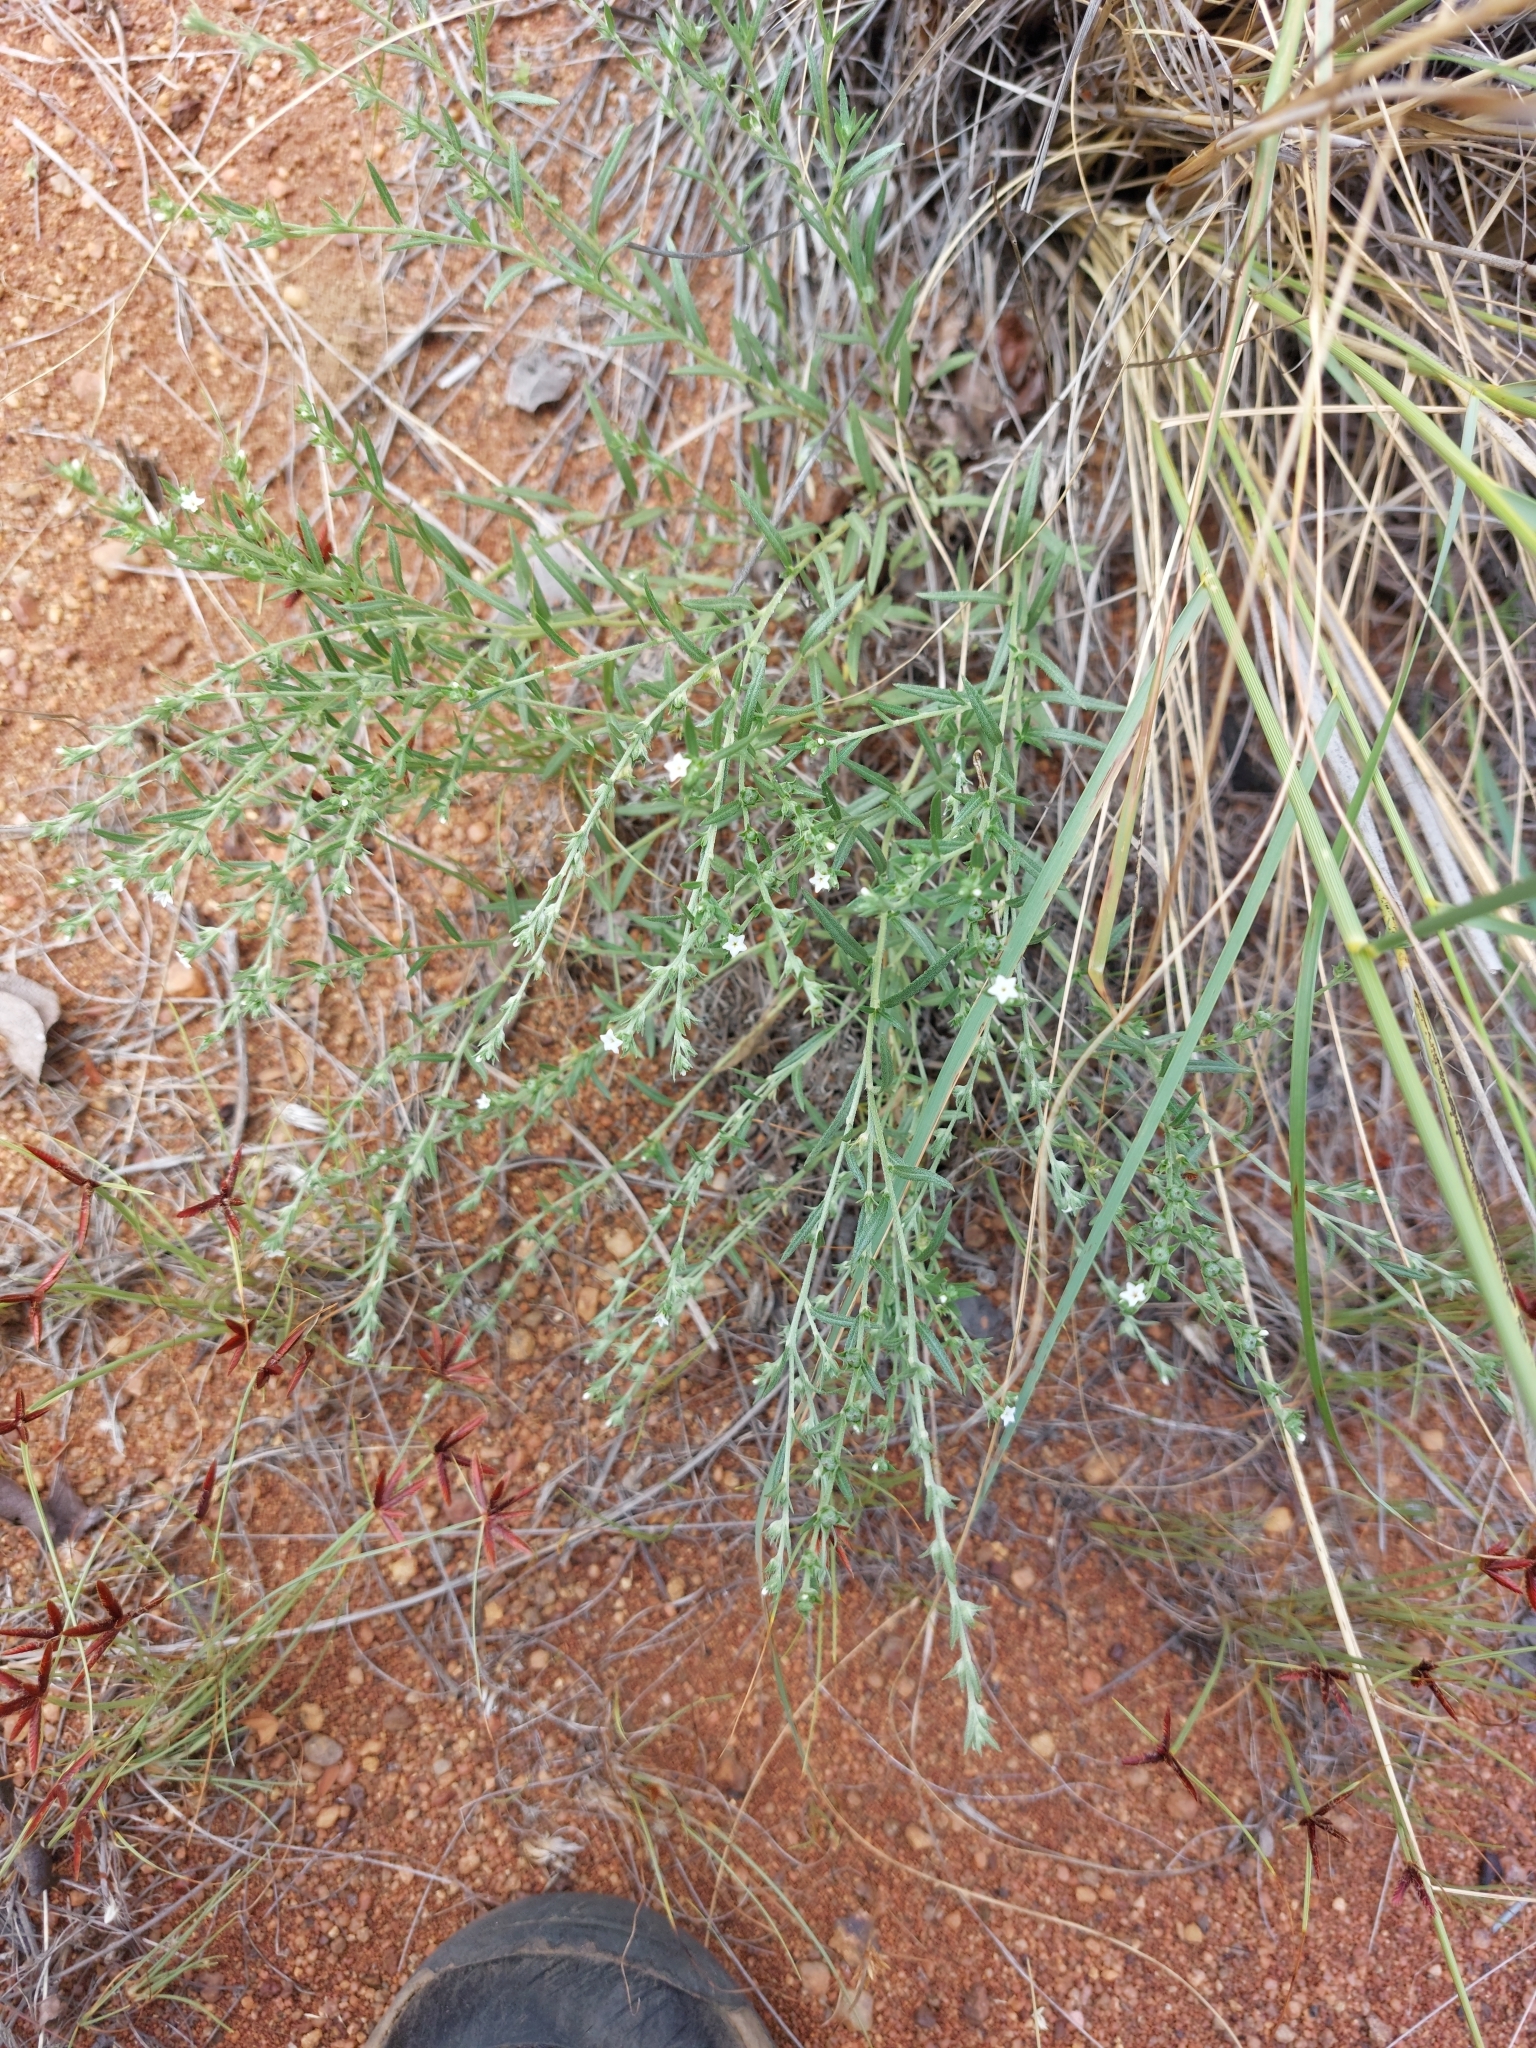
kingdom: Plantae
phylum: Tracheophyta
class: Magnoliopsida
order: Boraginales
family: Heliotropiaceae
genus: Euploca
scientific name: Euploca strigosa
